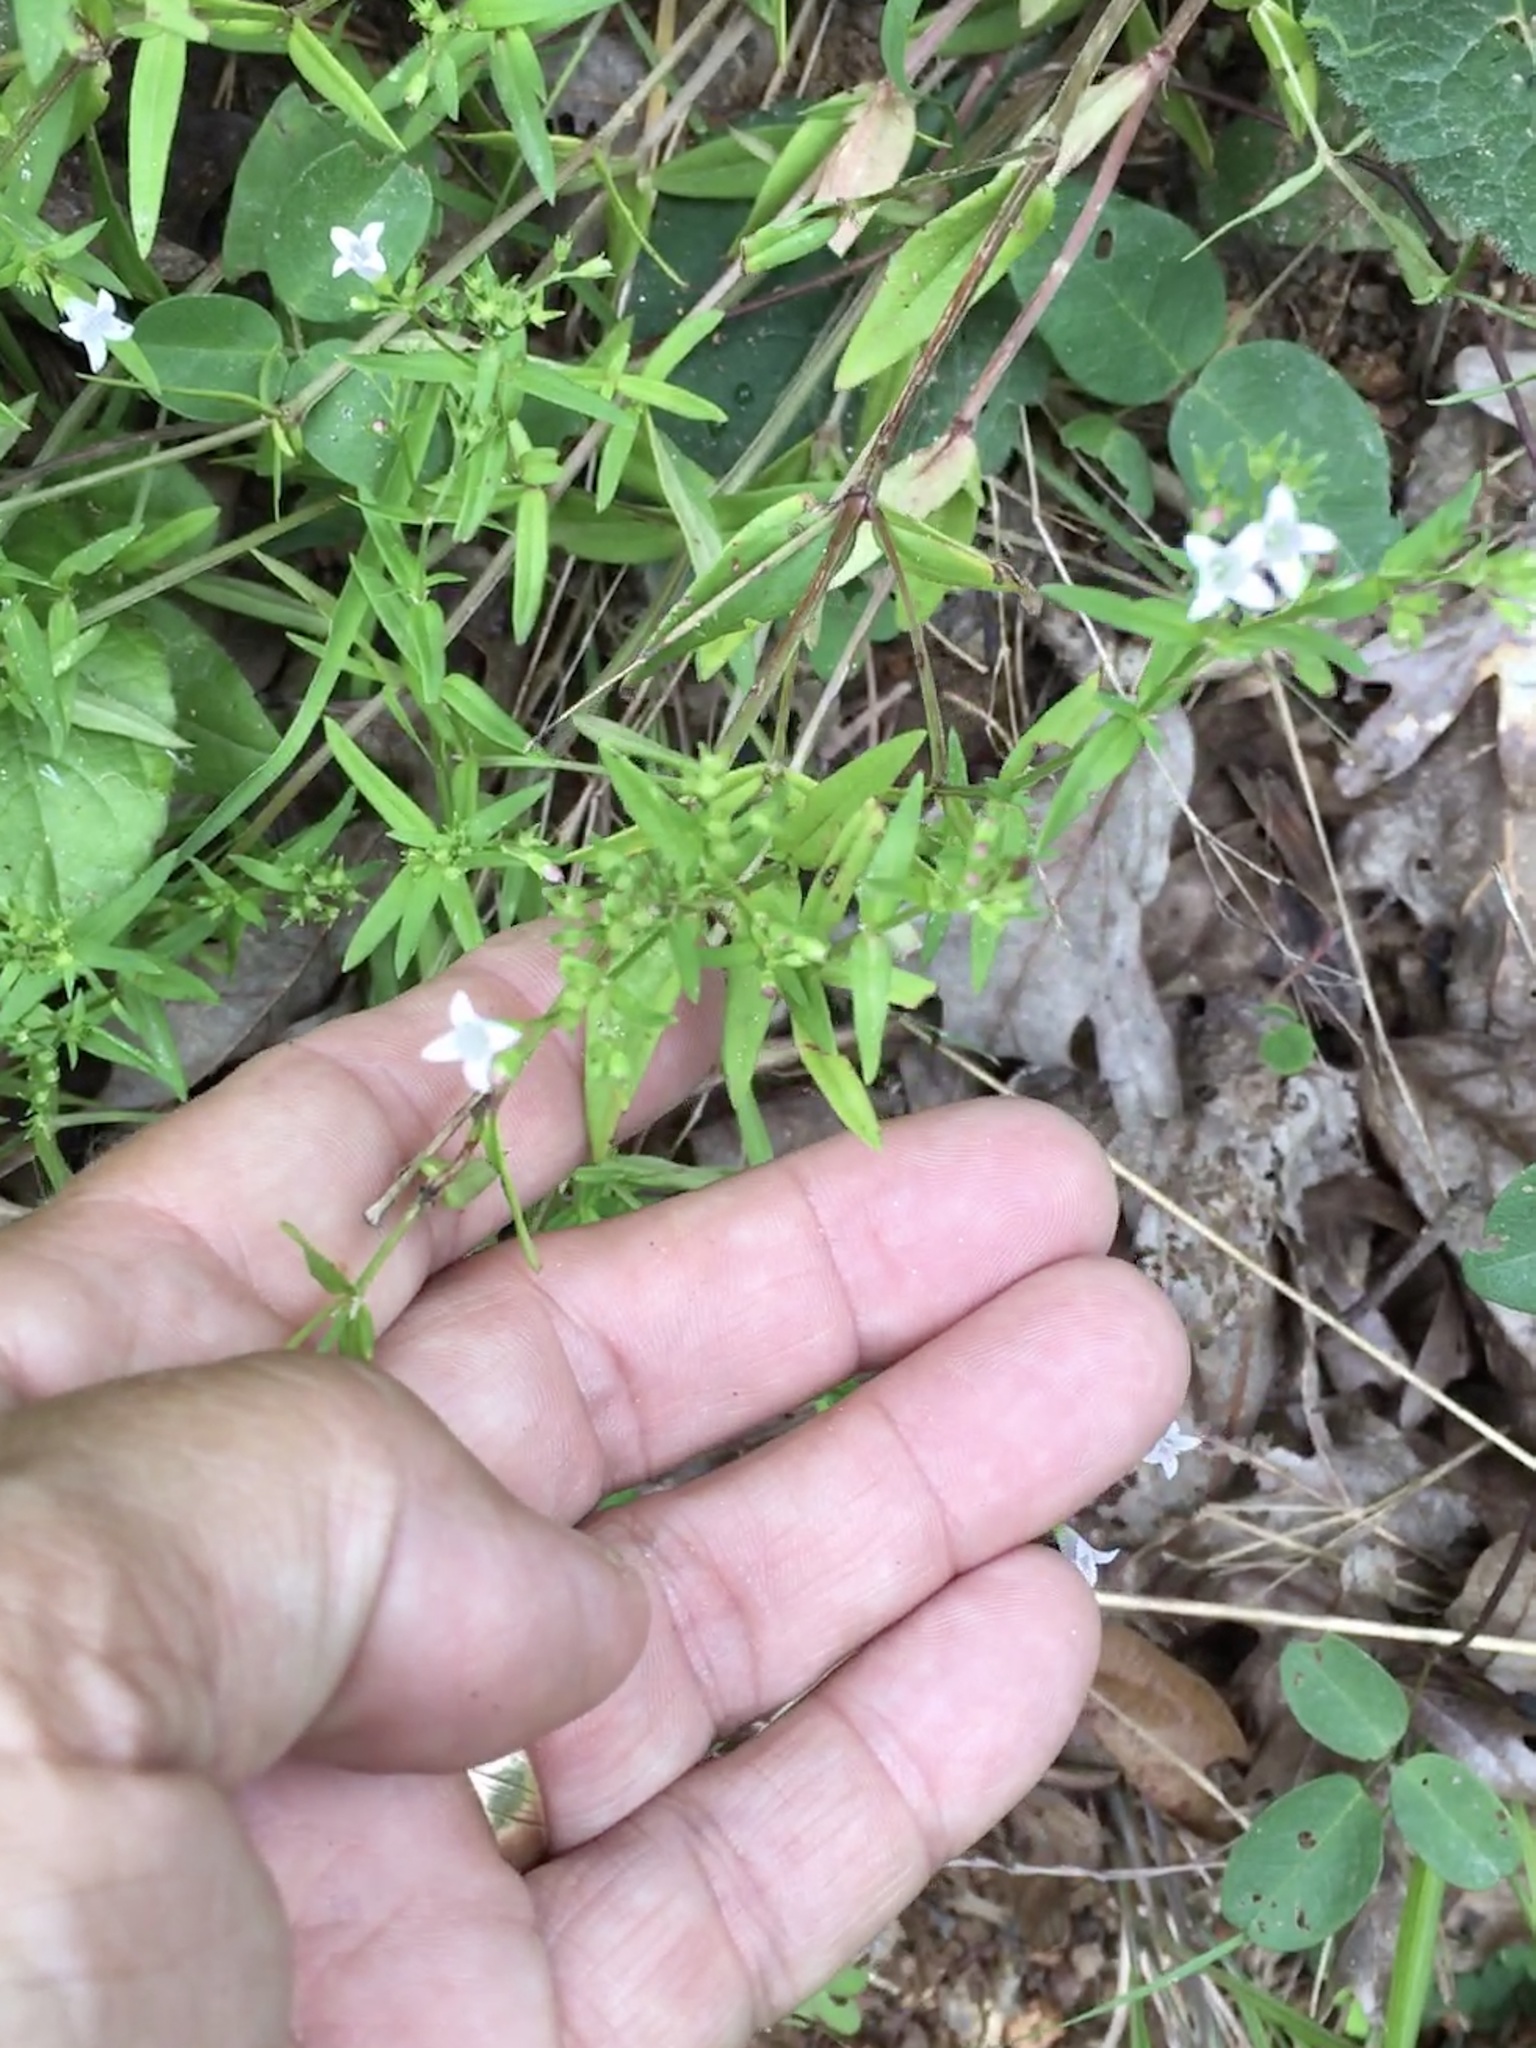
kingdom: Plantae
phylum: Tracheophyta
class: Magnoliopsida
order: Gentianales
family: Rubiaceae
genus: Houstonia
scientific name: Houstonia longifolia
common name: Long-leaved bluets
